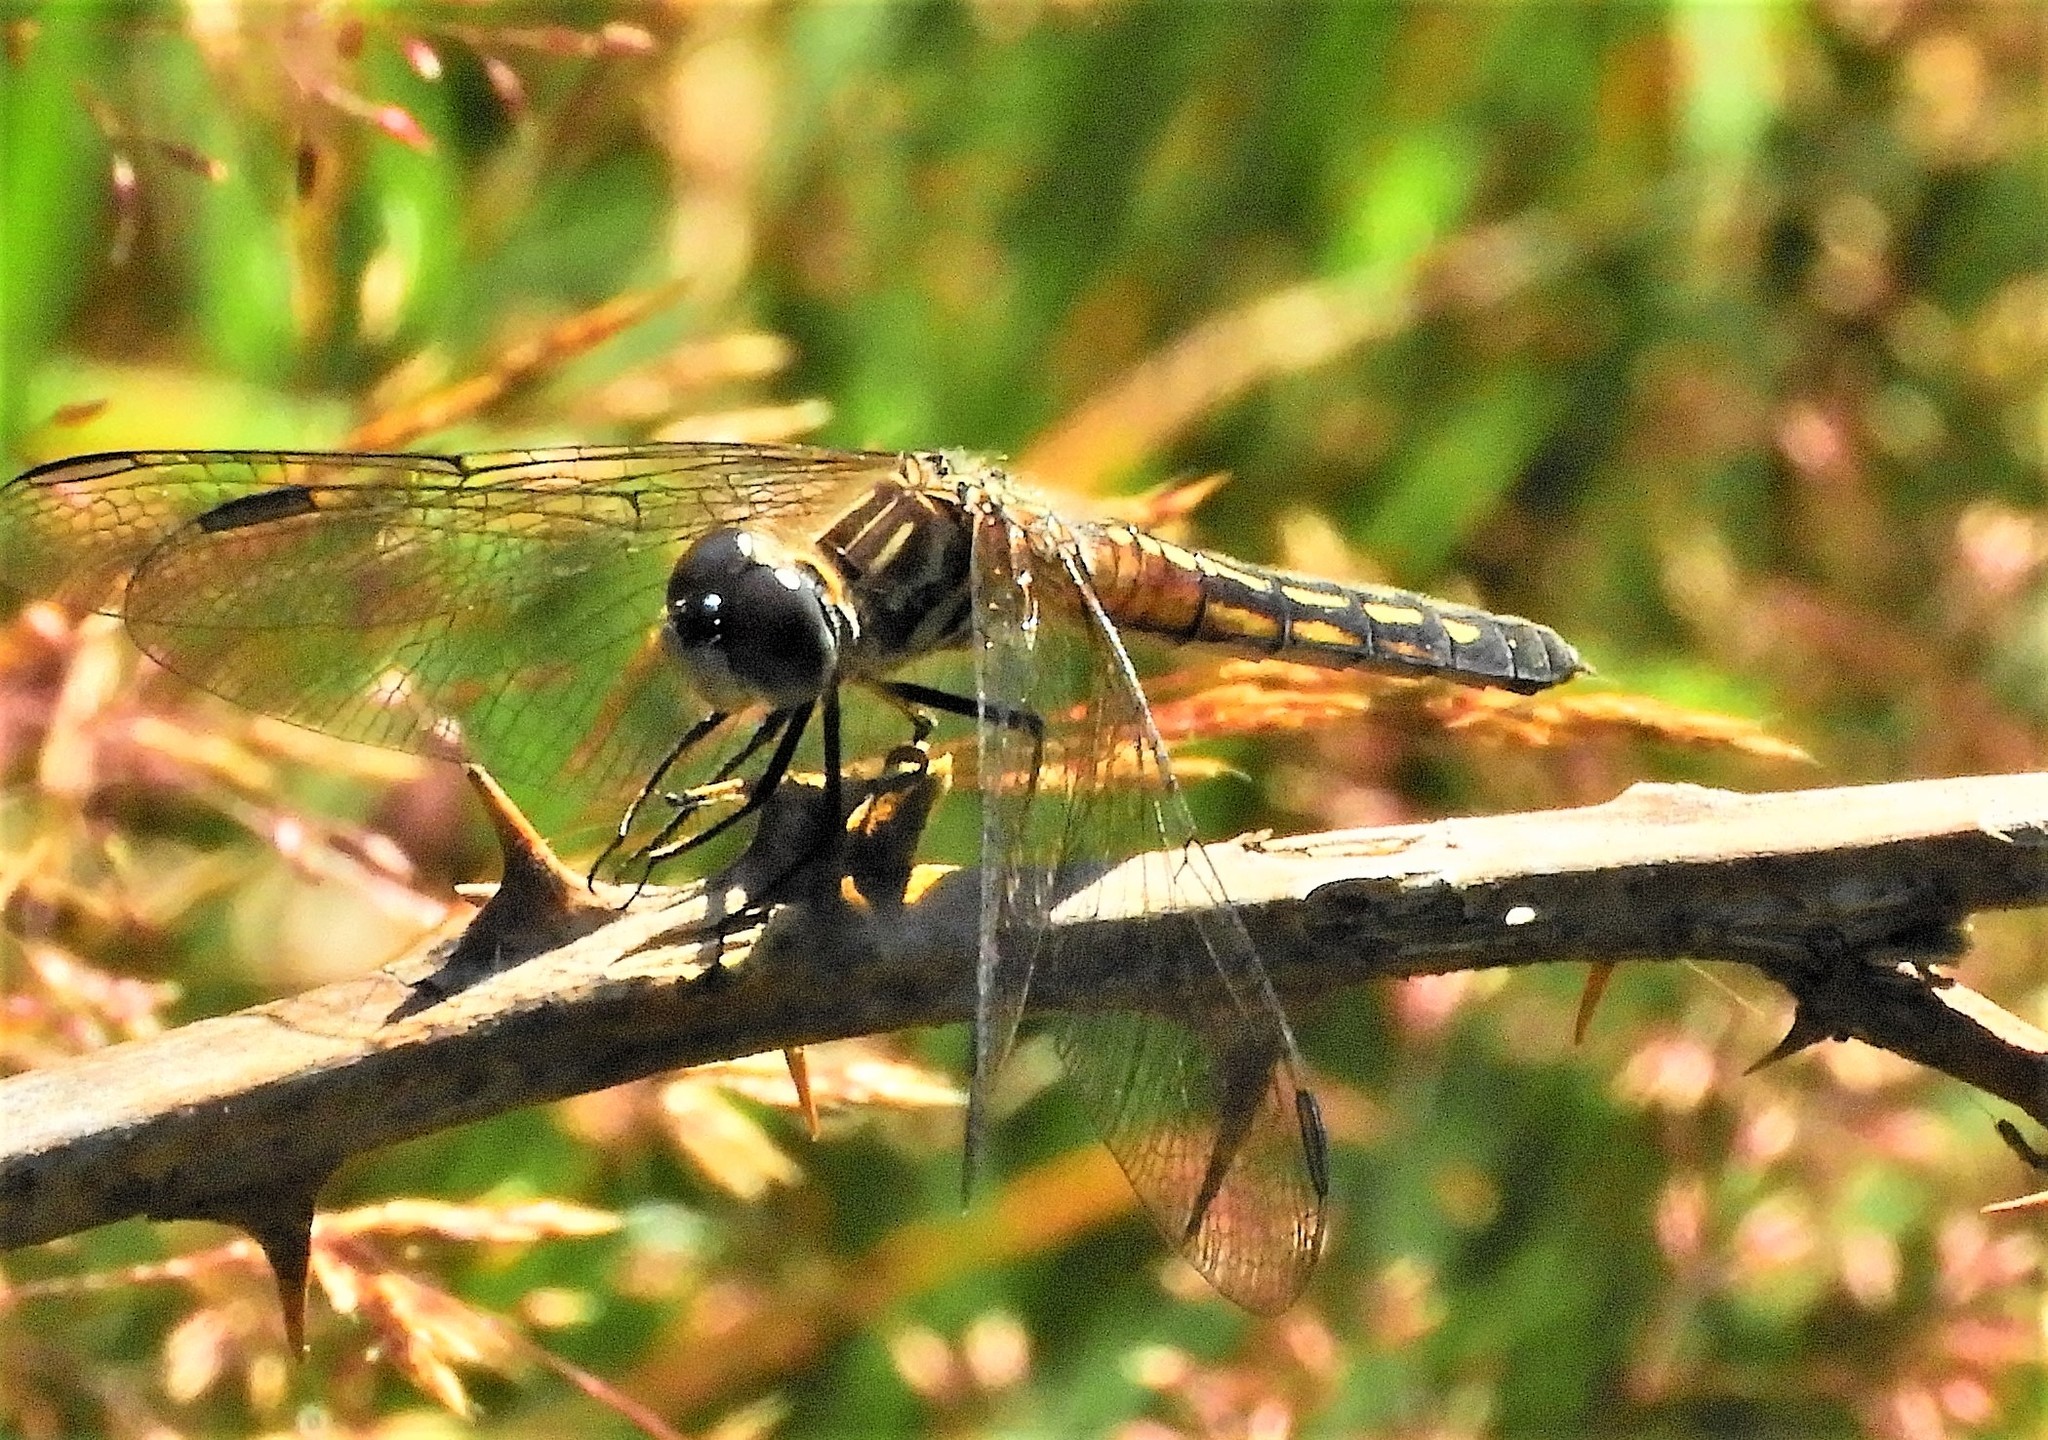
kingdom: Animalia
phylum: Arthropoda
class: Insecta
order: Odonata
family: Libellulidae
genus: Pachydiplax
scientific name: Pachydiplax longipennis
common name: Blue dasher
